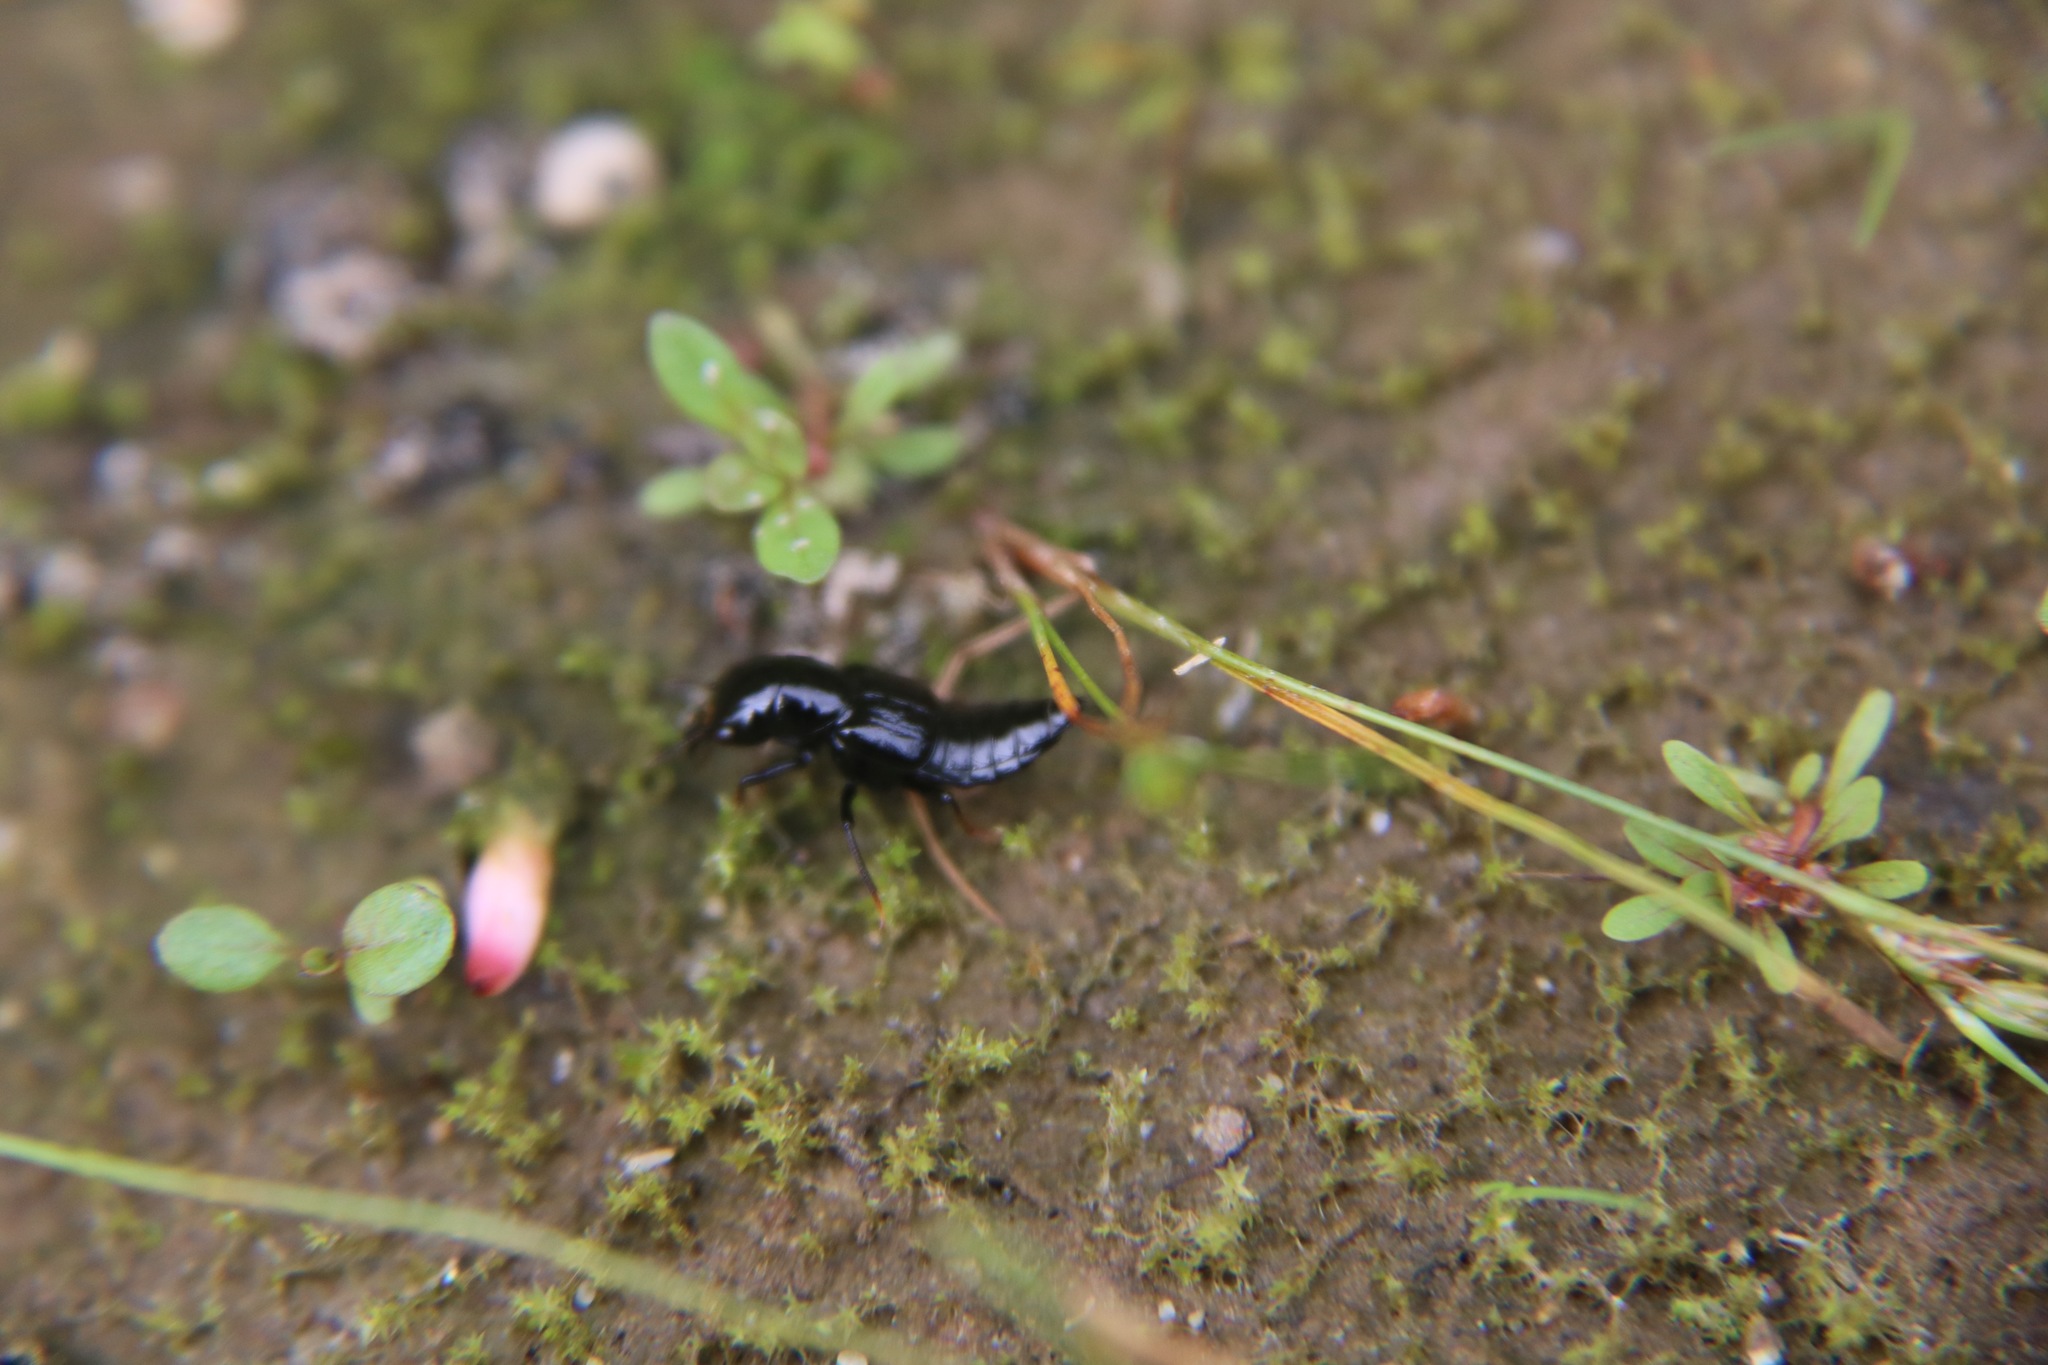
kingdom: Animalia
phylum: Arthropoda
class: Insecta
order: Coleoptera
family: Staphylinidae
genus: Oxyporus
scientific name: Oxyporus mannerheimii
